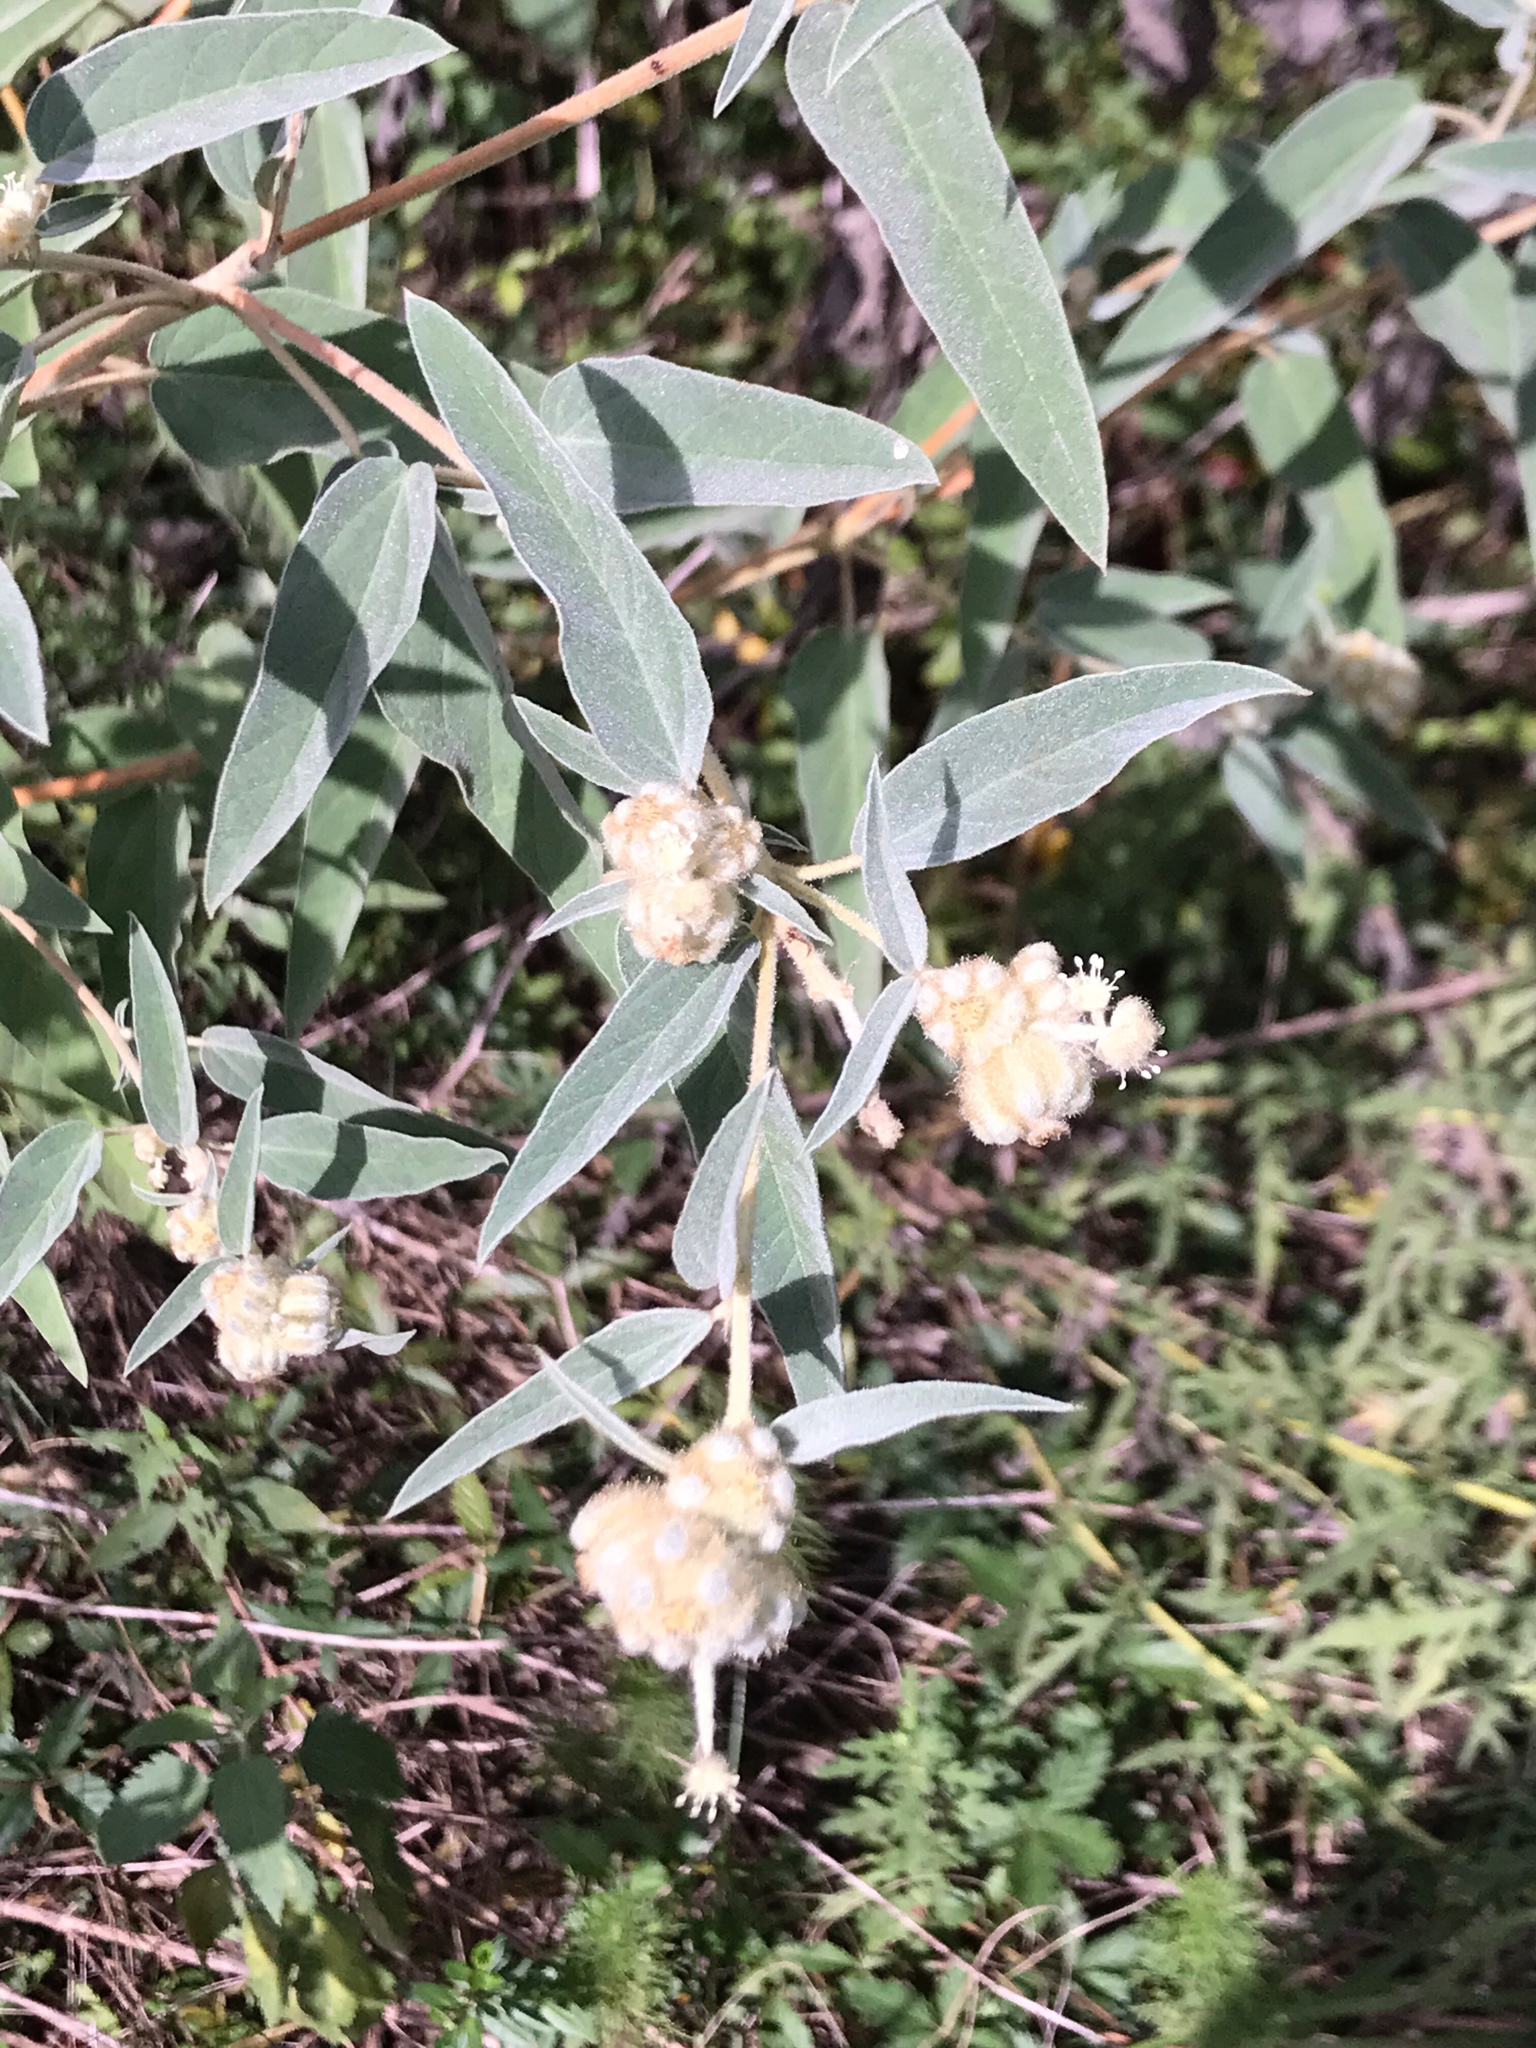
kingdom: Plantae
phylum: Tracheophyta
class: Magnoliopsida
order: Malpighiales
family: Euphorbiaceae
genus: Croton
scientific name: Croton lindheimeri
